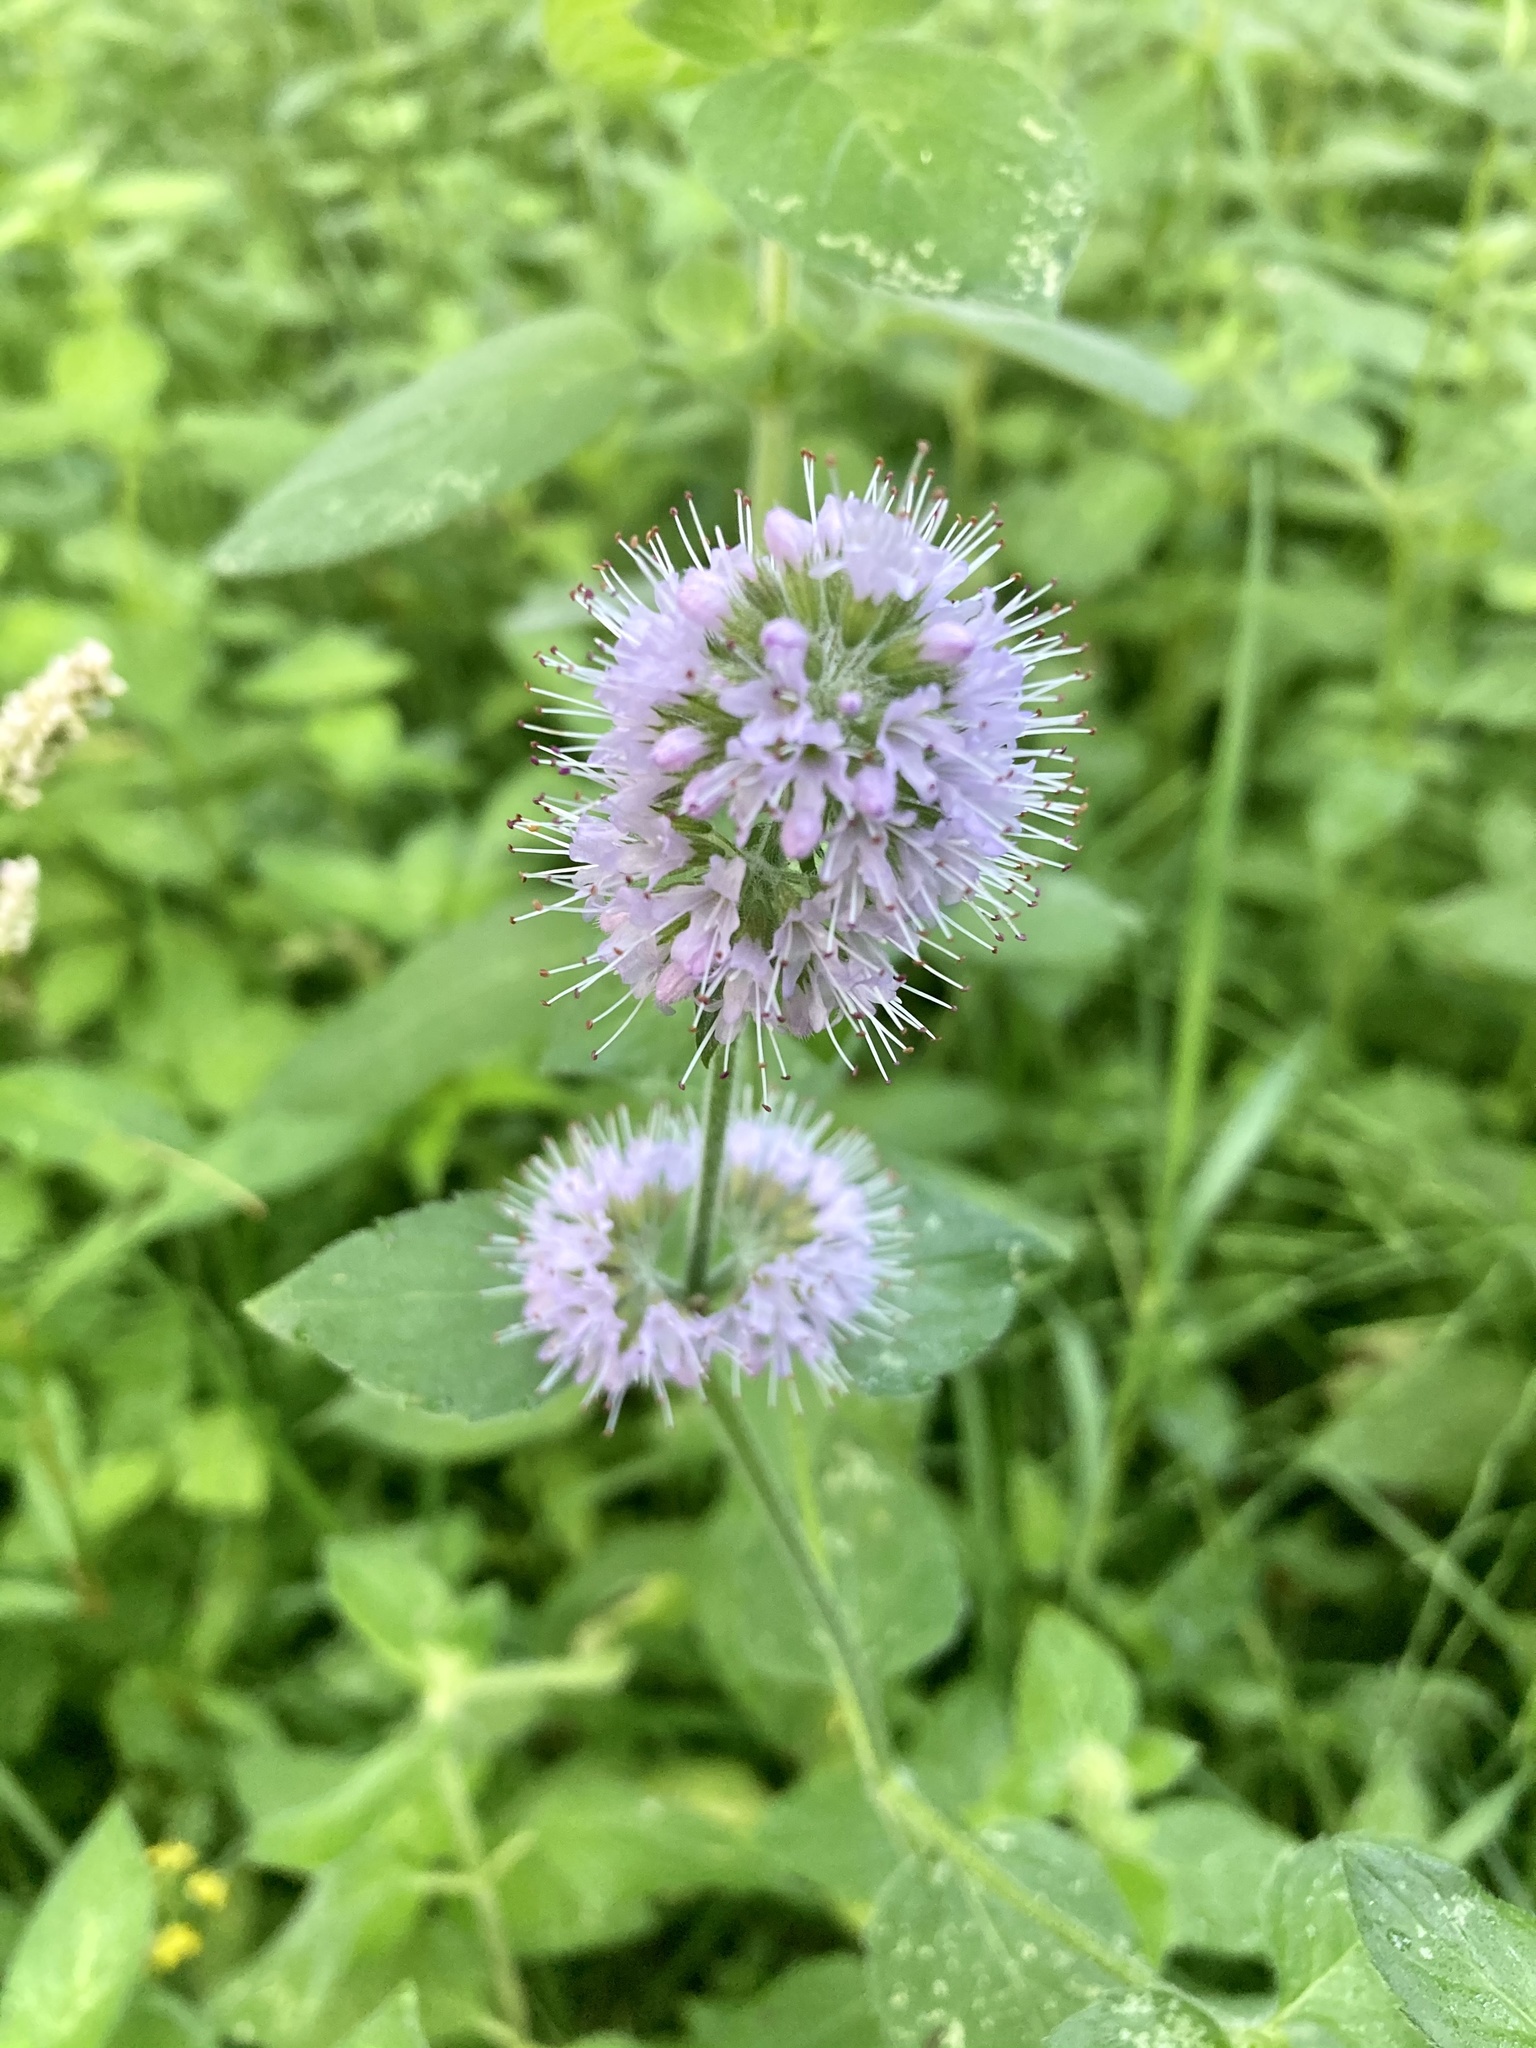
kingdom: Plantae
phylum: Tracheophyta
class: Magnoliopsida
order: Lamiales
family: Lamiaceae
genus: Mentha
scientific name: Mentha aquatica
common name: Water mint
